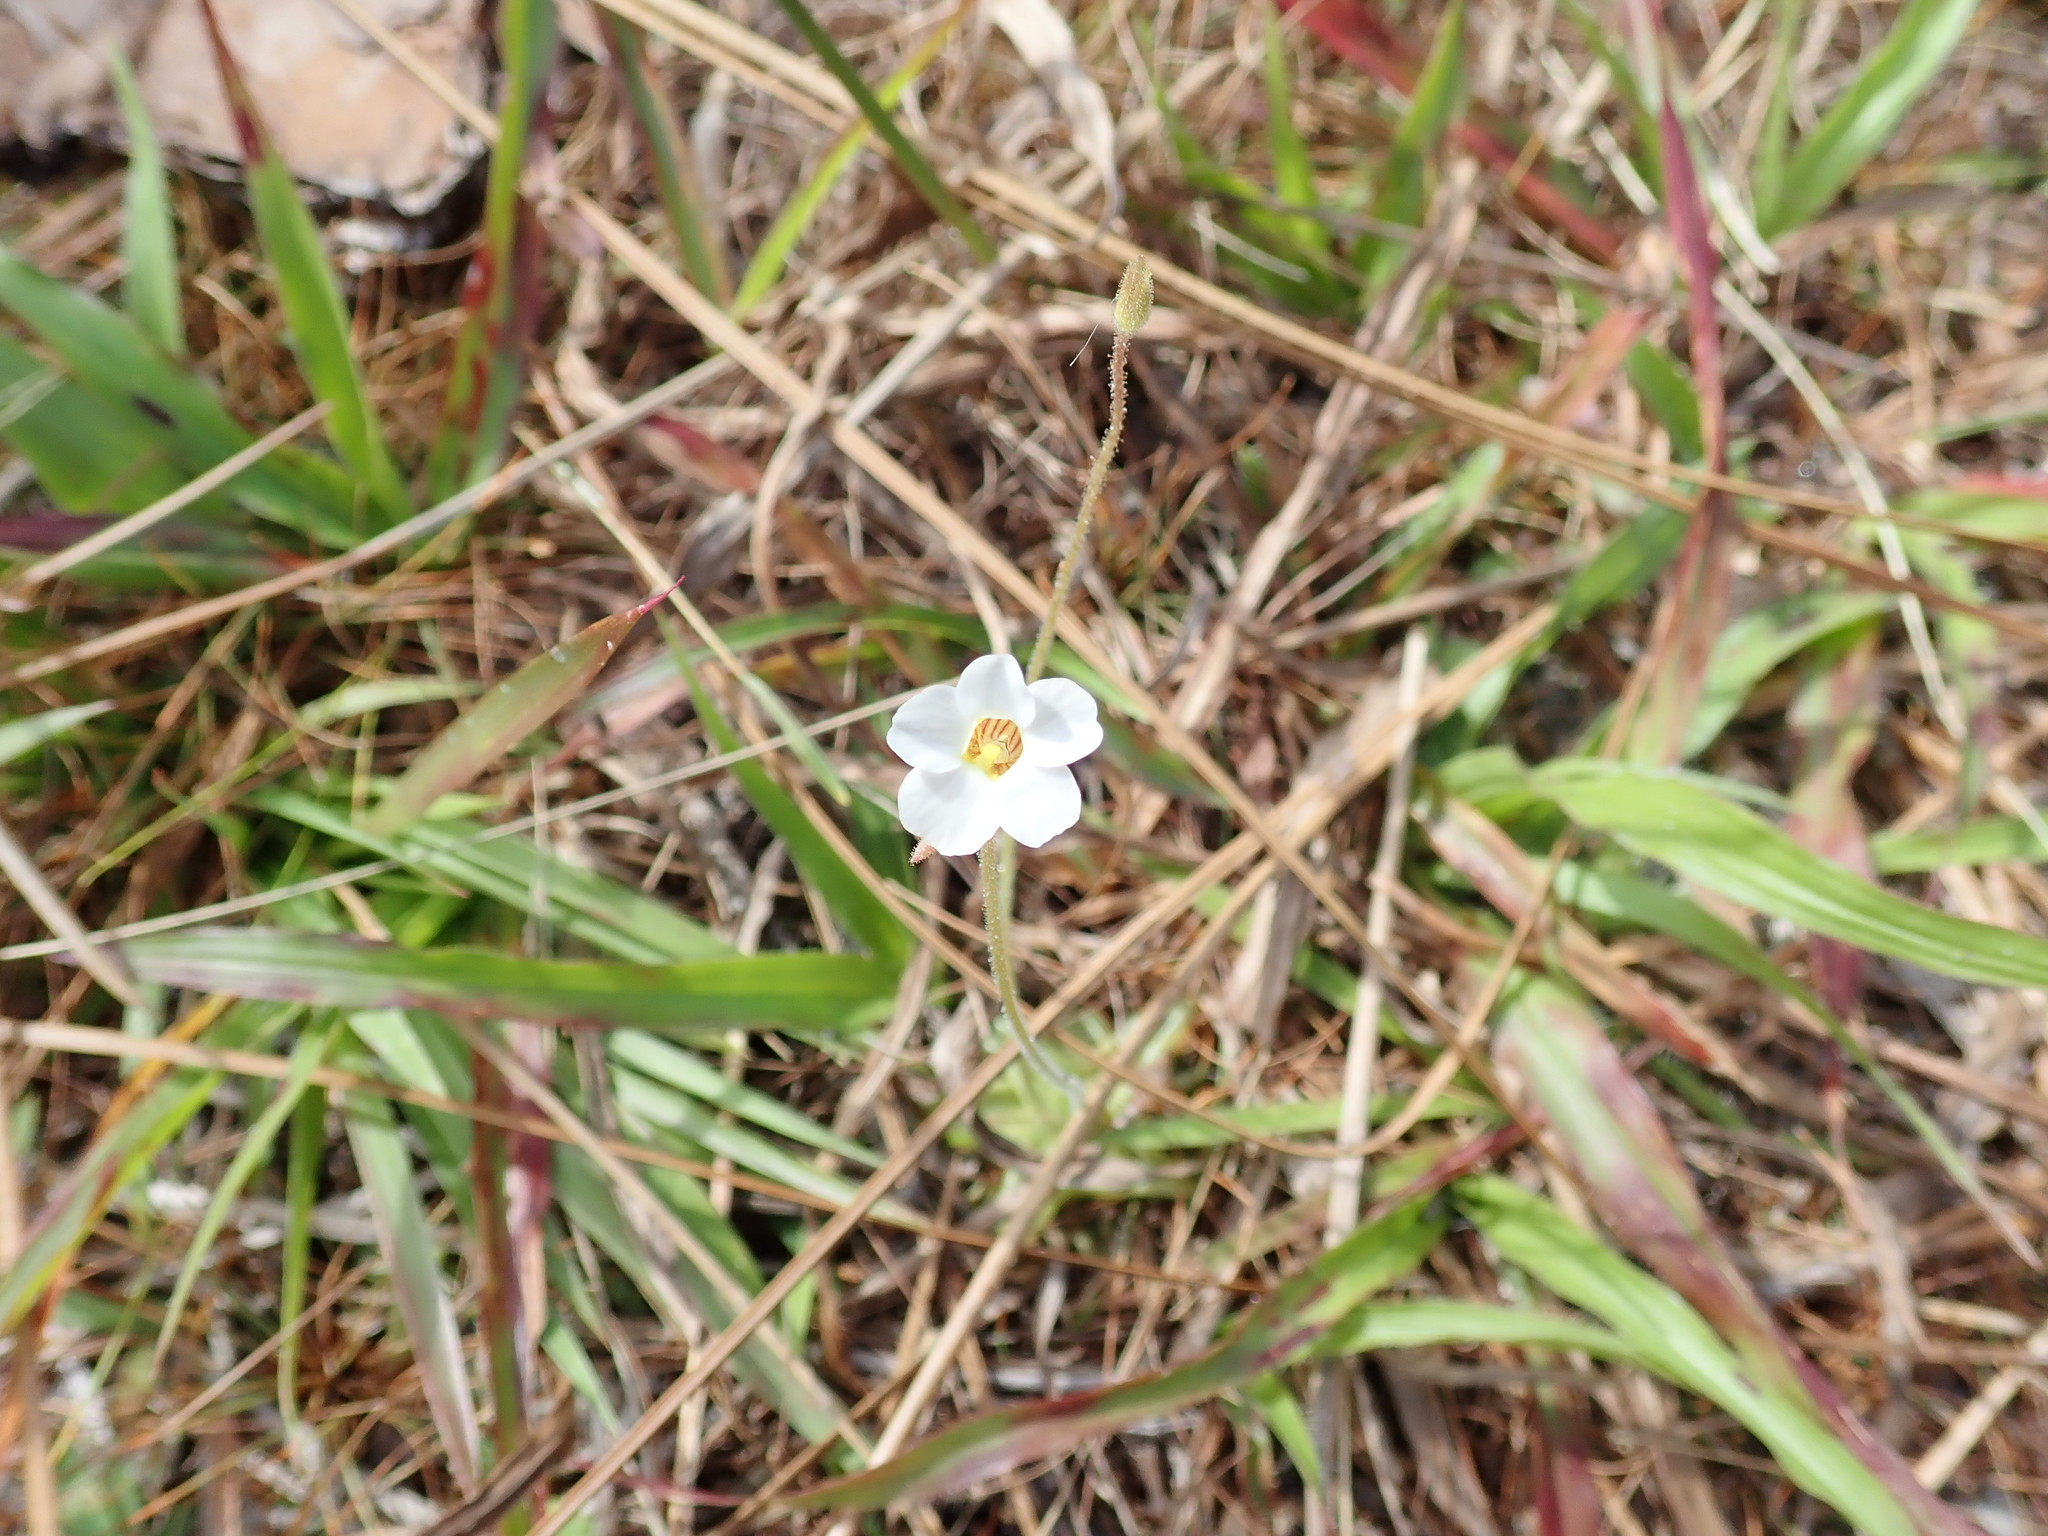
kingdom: Plantae
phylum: Tracheophyta
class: Magnoliopsida
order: Lamiales
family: Lentibulariaceae
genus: Pinguicula
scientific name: Pinguicula pumila
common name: Small butterwort
